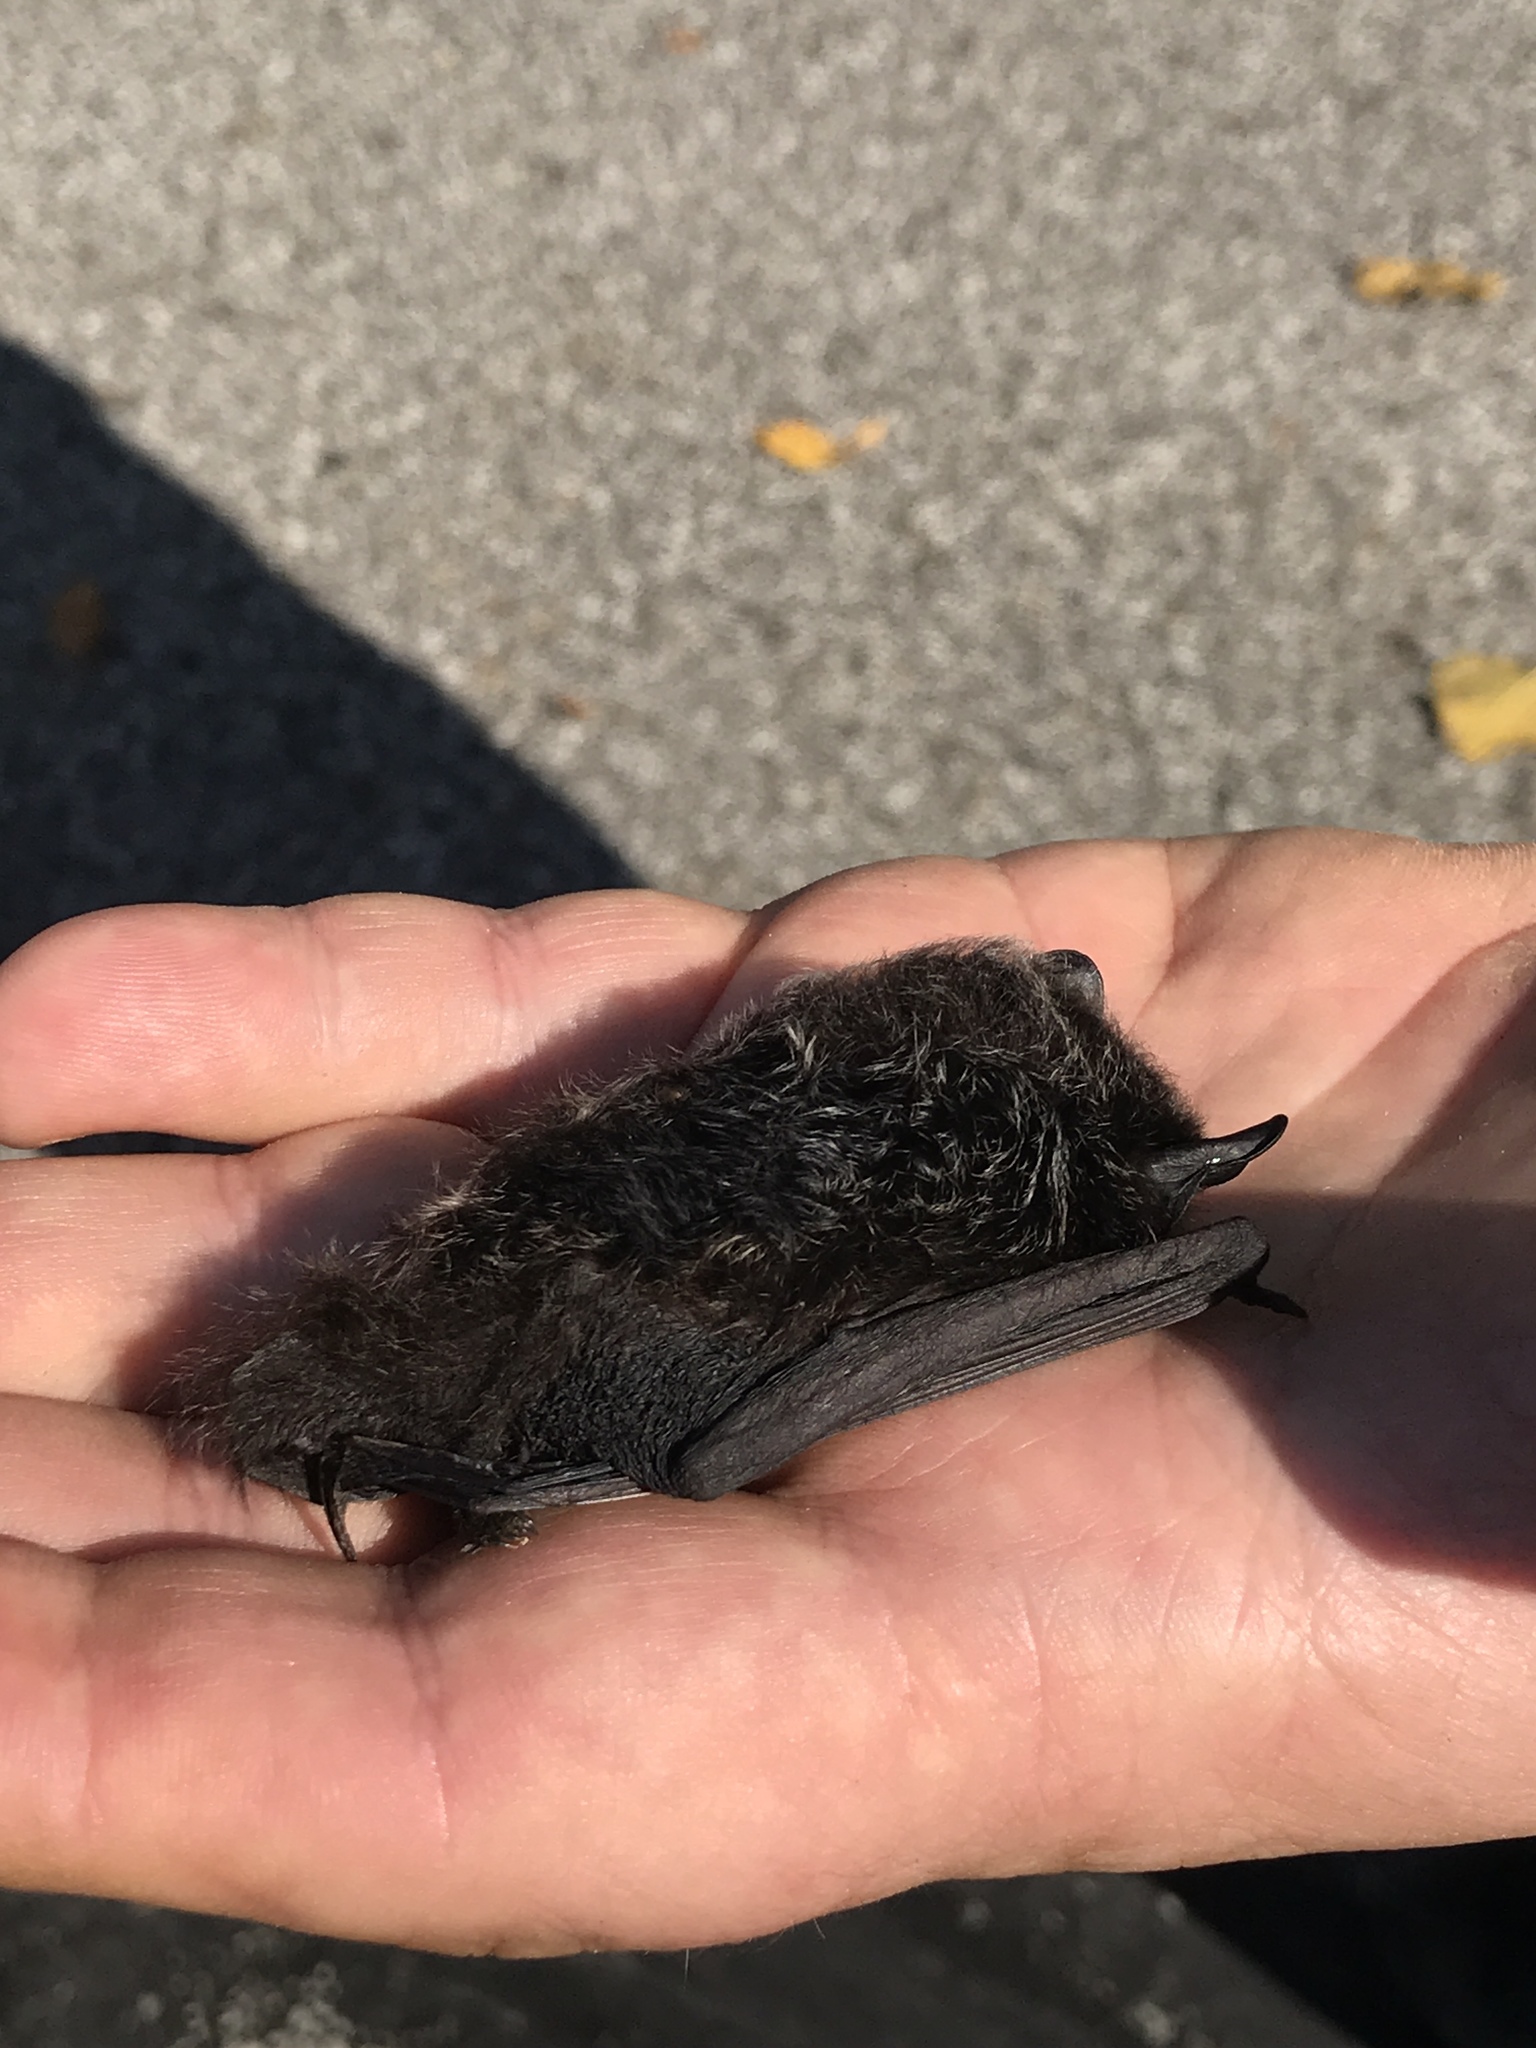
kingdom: Animalia
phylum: Chordata
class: Mammalia
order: Chiroptera
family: Vespertilionidae
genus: Lasionycteris
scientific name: Lasionycteris noctivagans
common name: Silver-haired bat
